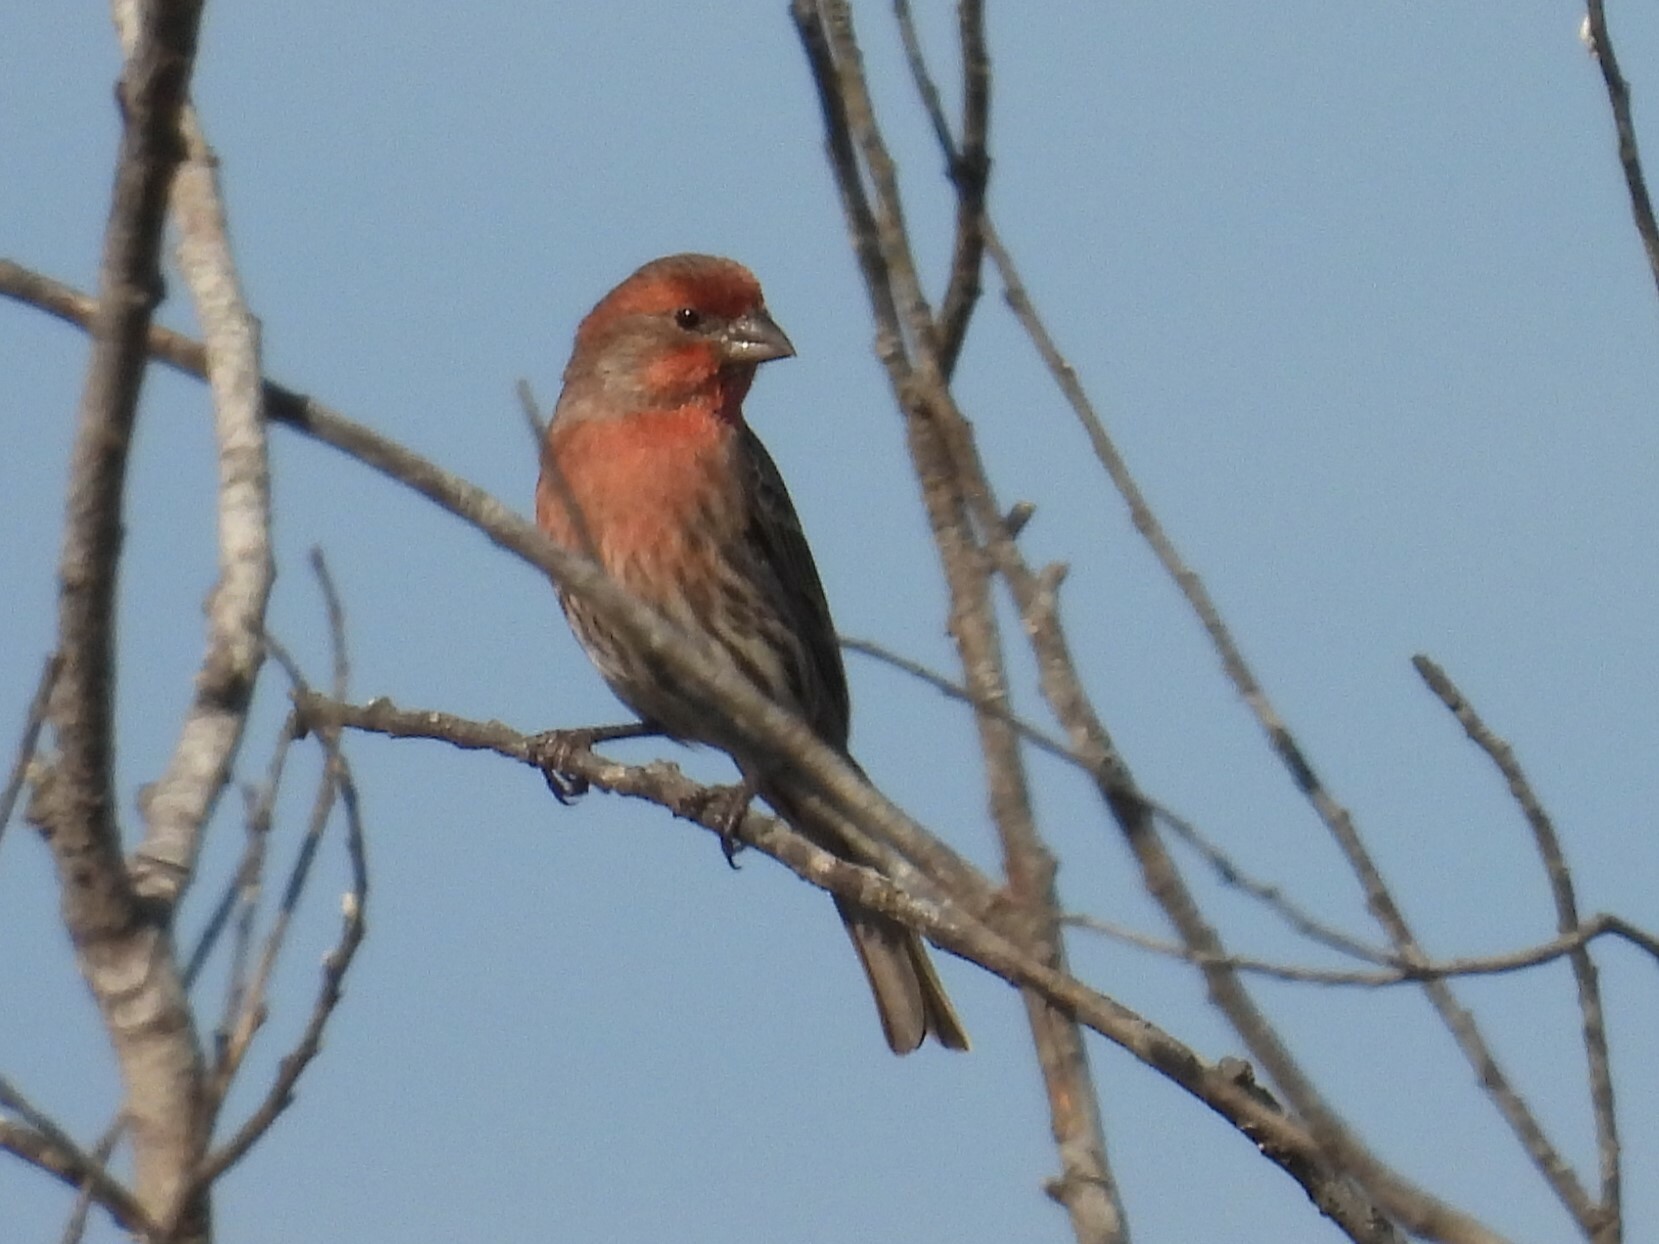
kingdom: Animalia
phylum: Chordata
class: Aves
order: Passeriformes
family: Fringillidae
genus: Haemorhous
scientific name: Haemorhous mexicanus
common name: House finch
